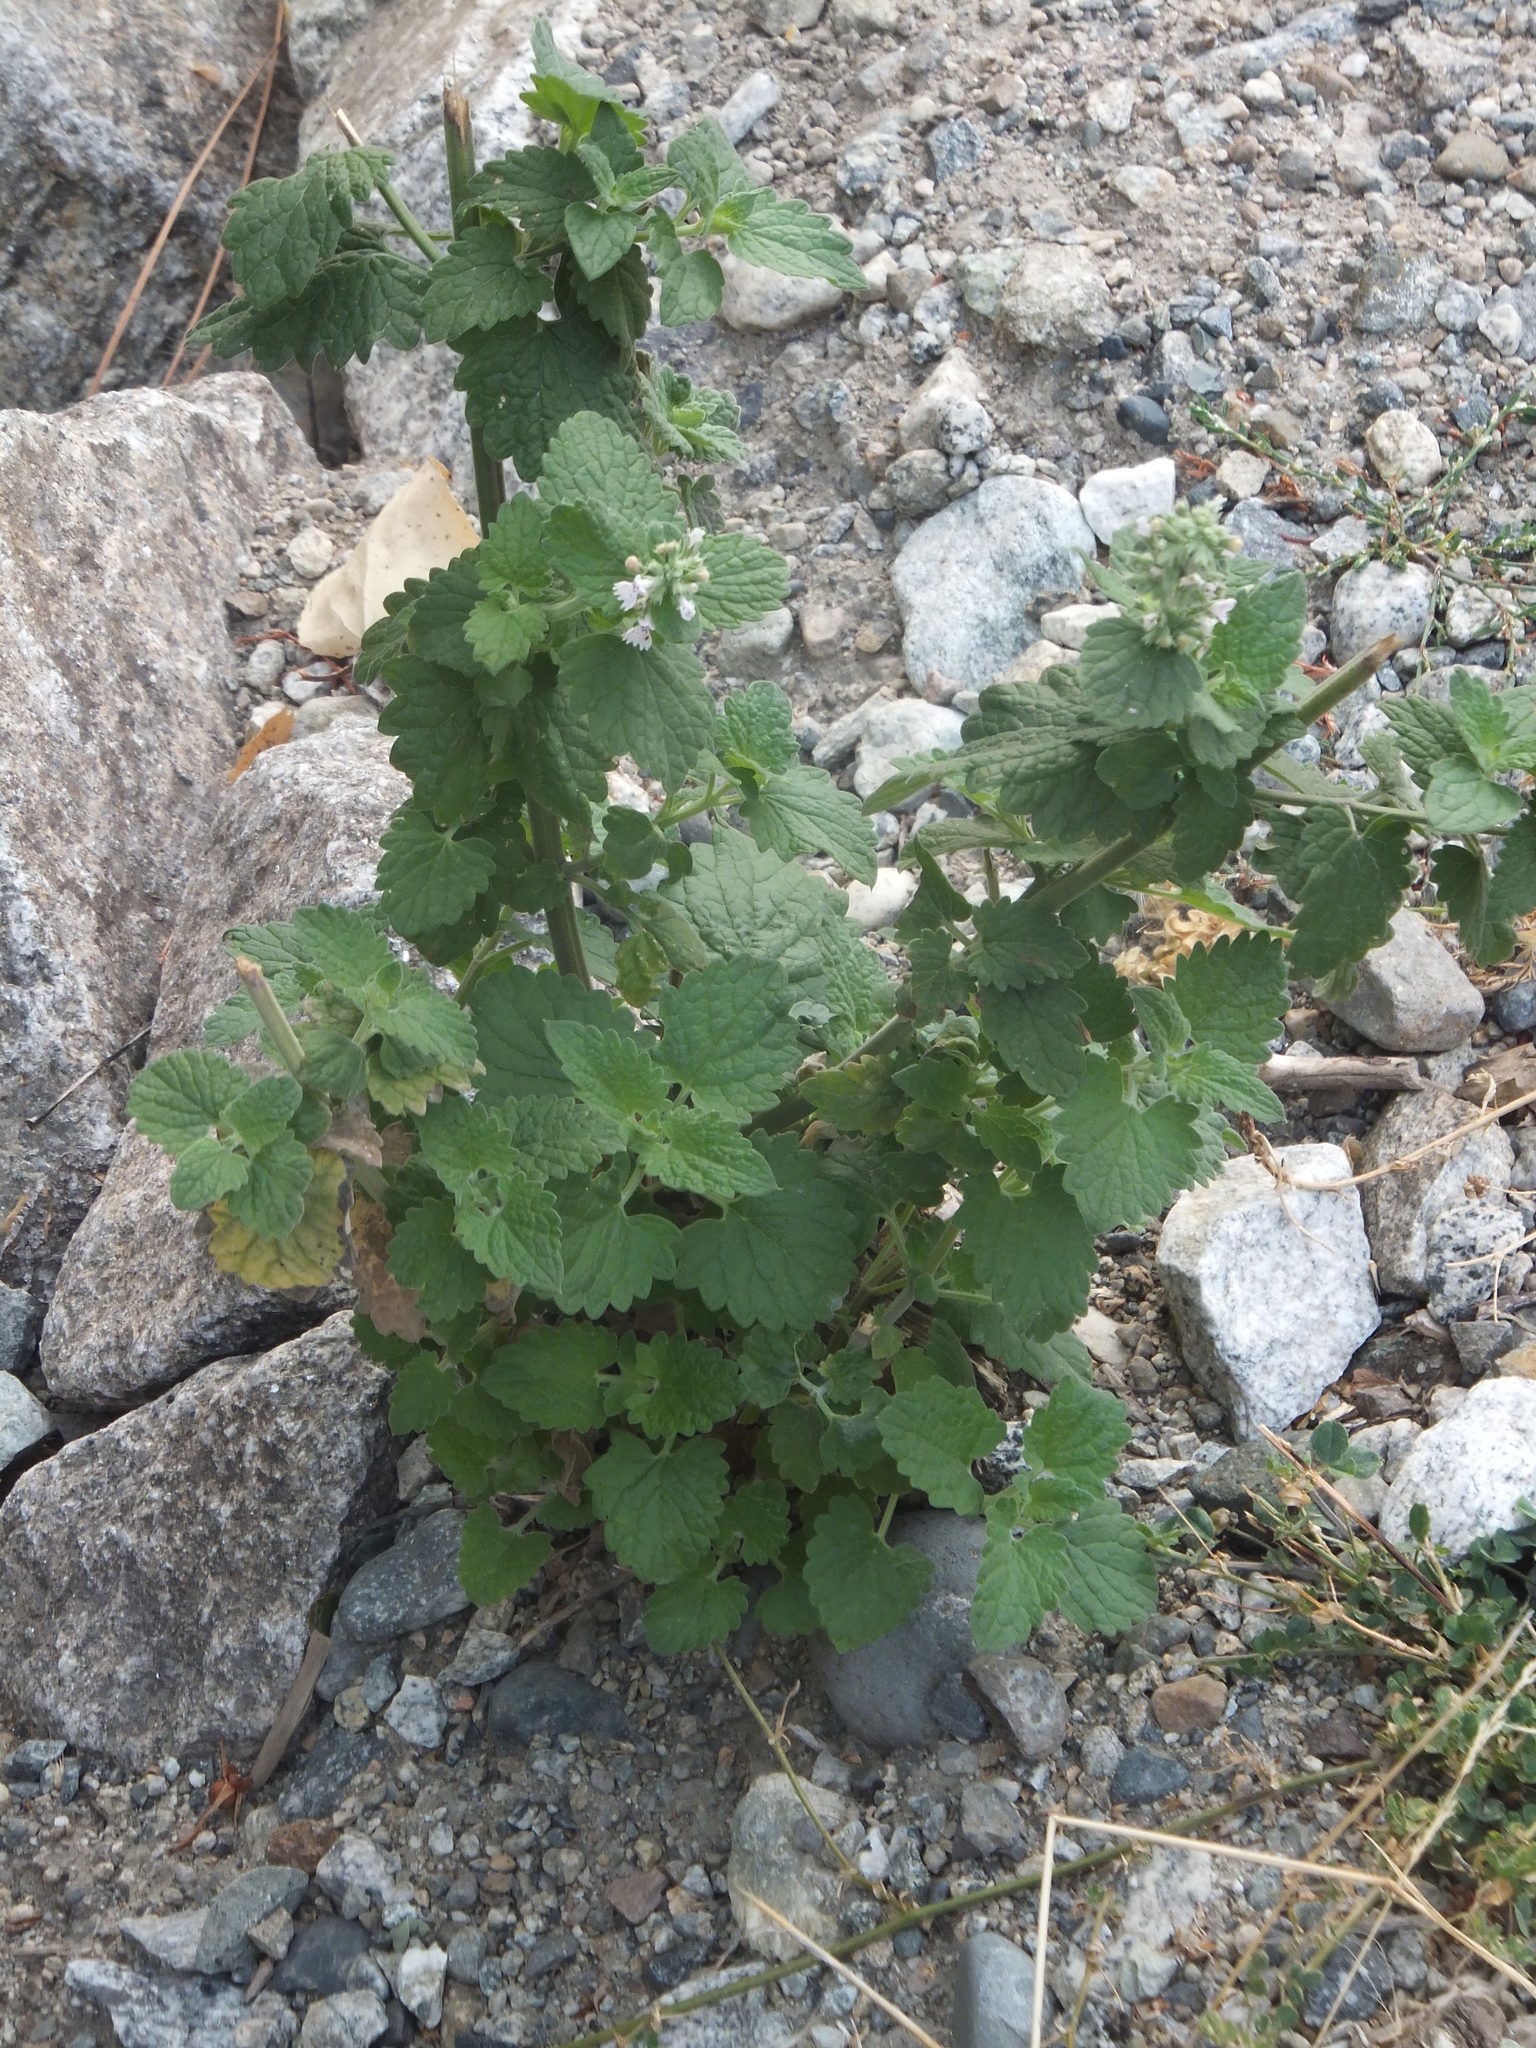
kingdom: Plantae
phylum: Tracheophyta
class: Magnoliopsida
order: Lamiales
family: Lamiaceae
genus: Nepeta
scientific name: Nepeta cataria
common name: Catnip
